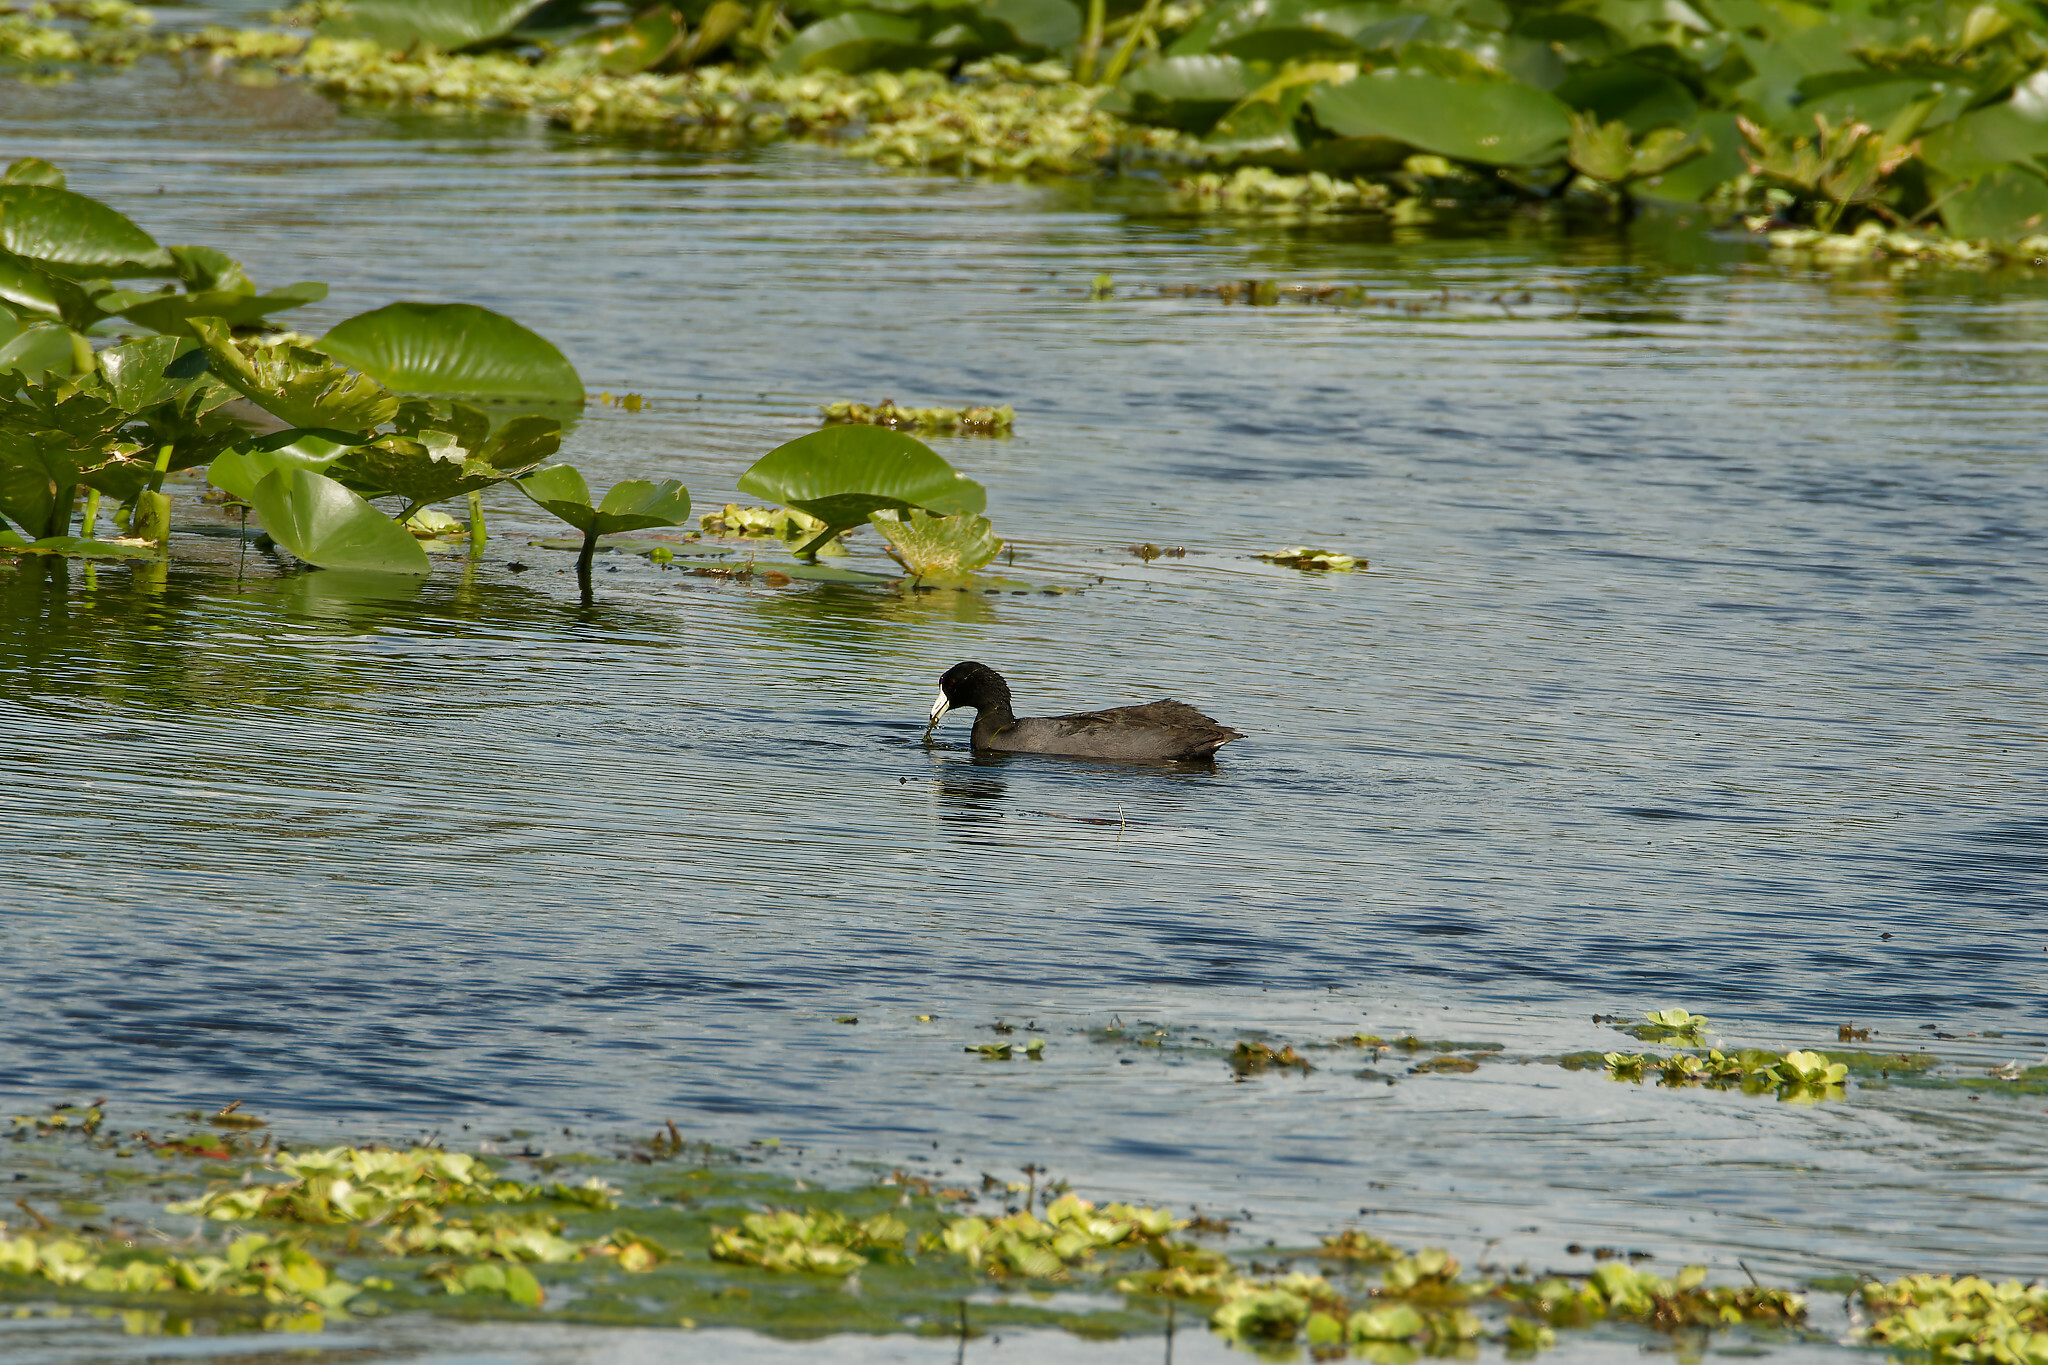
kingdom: Animalia
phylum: Chordata
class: Aves
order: Gruiformes
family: Rallidae
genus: Fulica
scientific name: Fulica americana
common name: American coot
